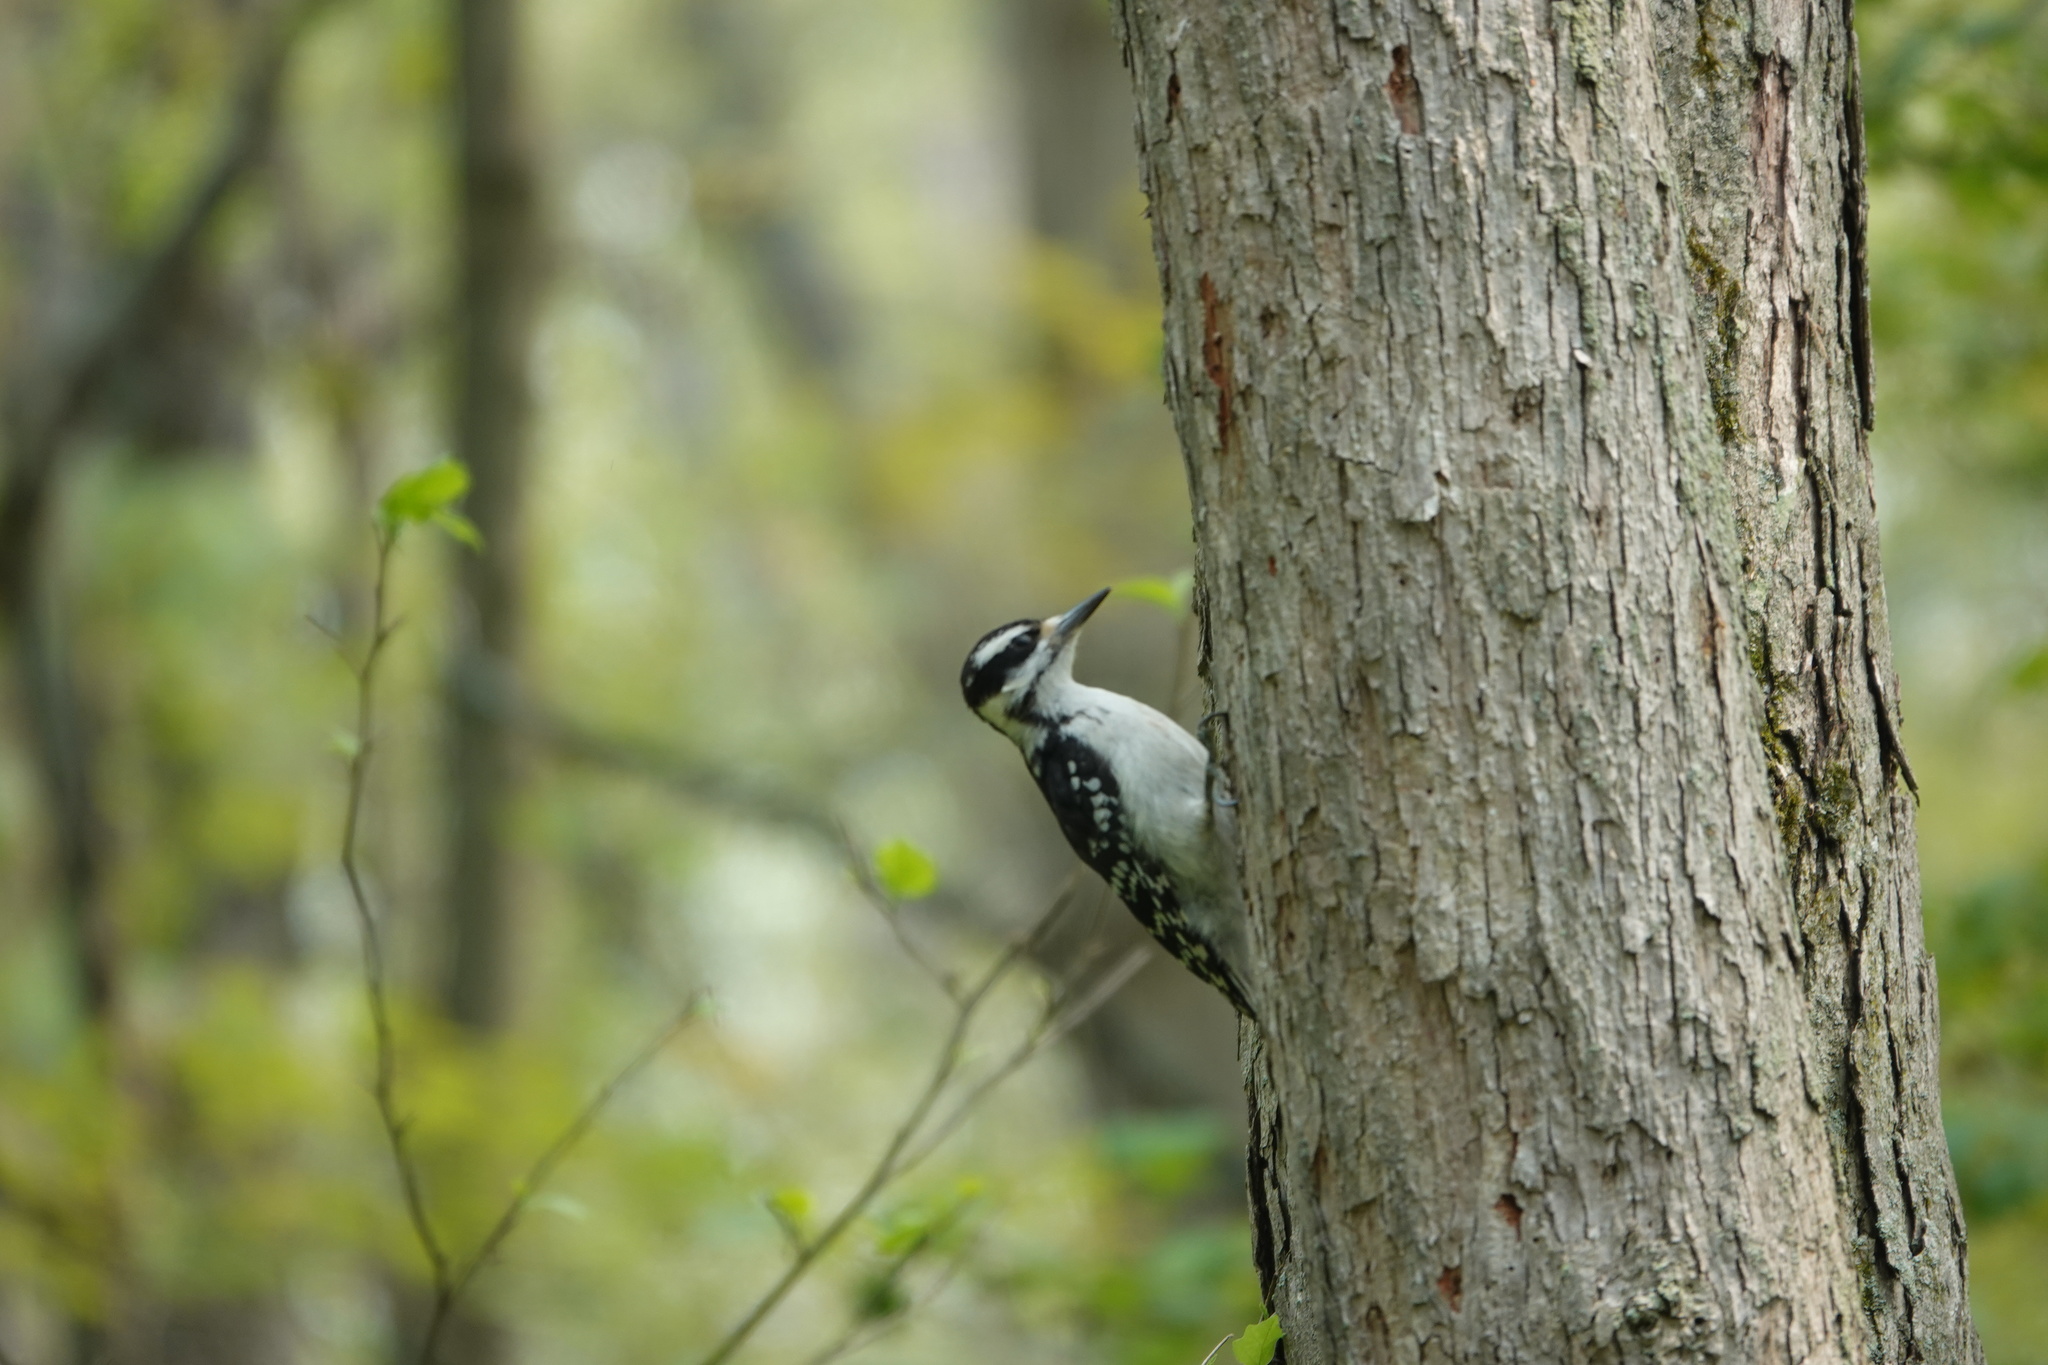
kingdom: Animalia
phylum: Chordata
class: Aves
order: Piciformes
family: Picidae
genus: Leuconotopicus
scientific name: Leuconotopicus villosus
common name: Hairy woodpecker
